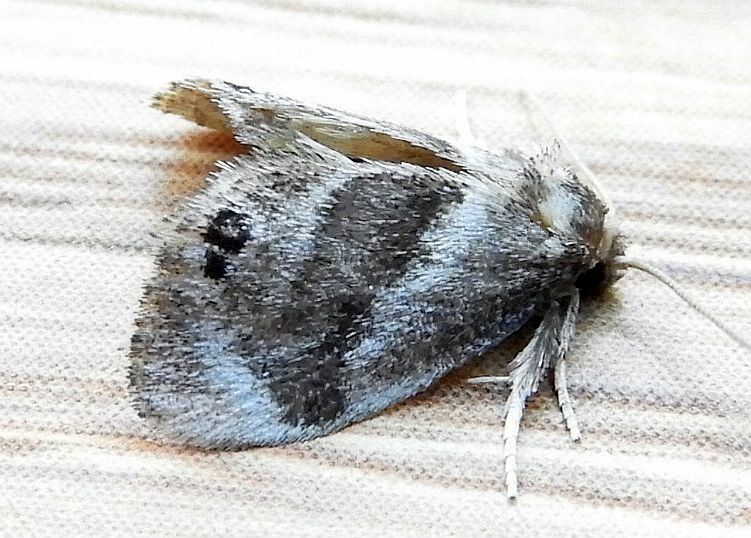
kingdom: Animalia
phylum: Arthropoda
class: Insecta
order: Lepidoptera
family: Limacodidae
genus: Packardia
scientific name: Packardia elegans
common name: Elegant tailed slug moth
